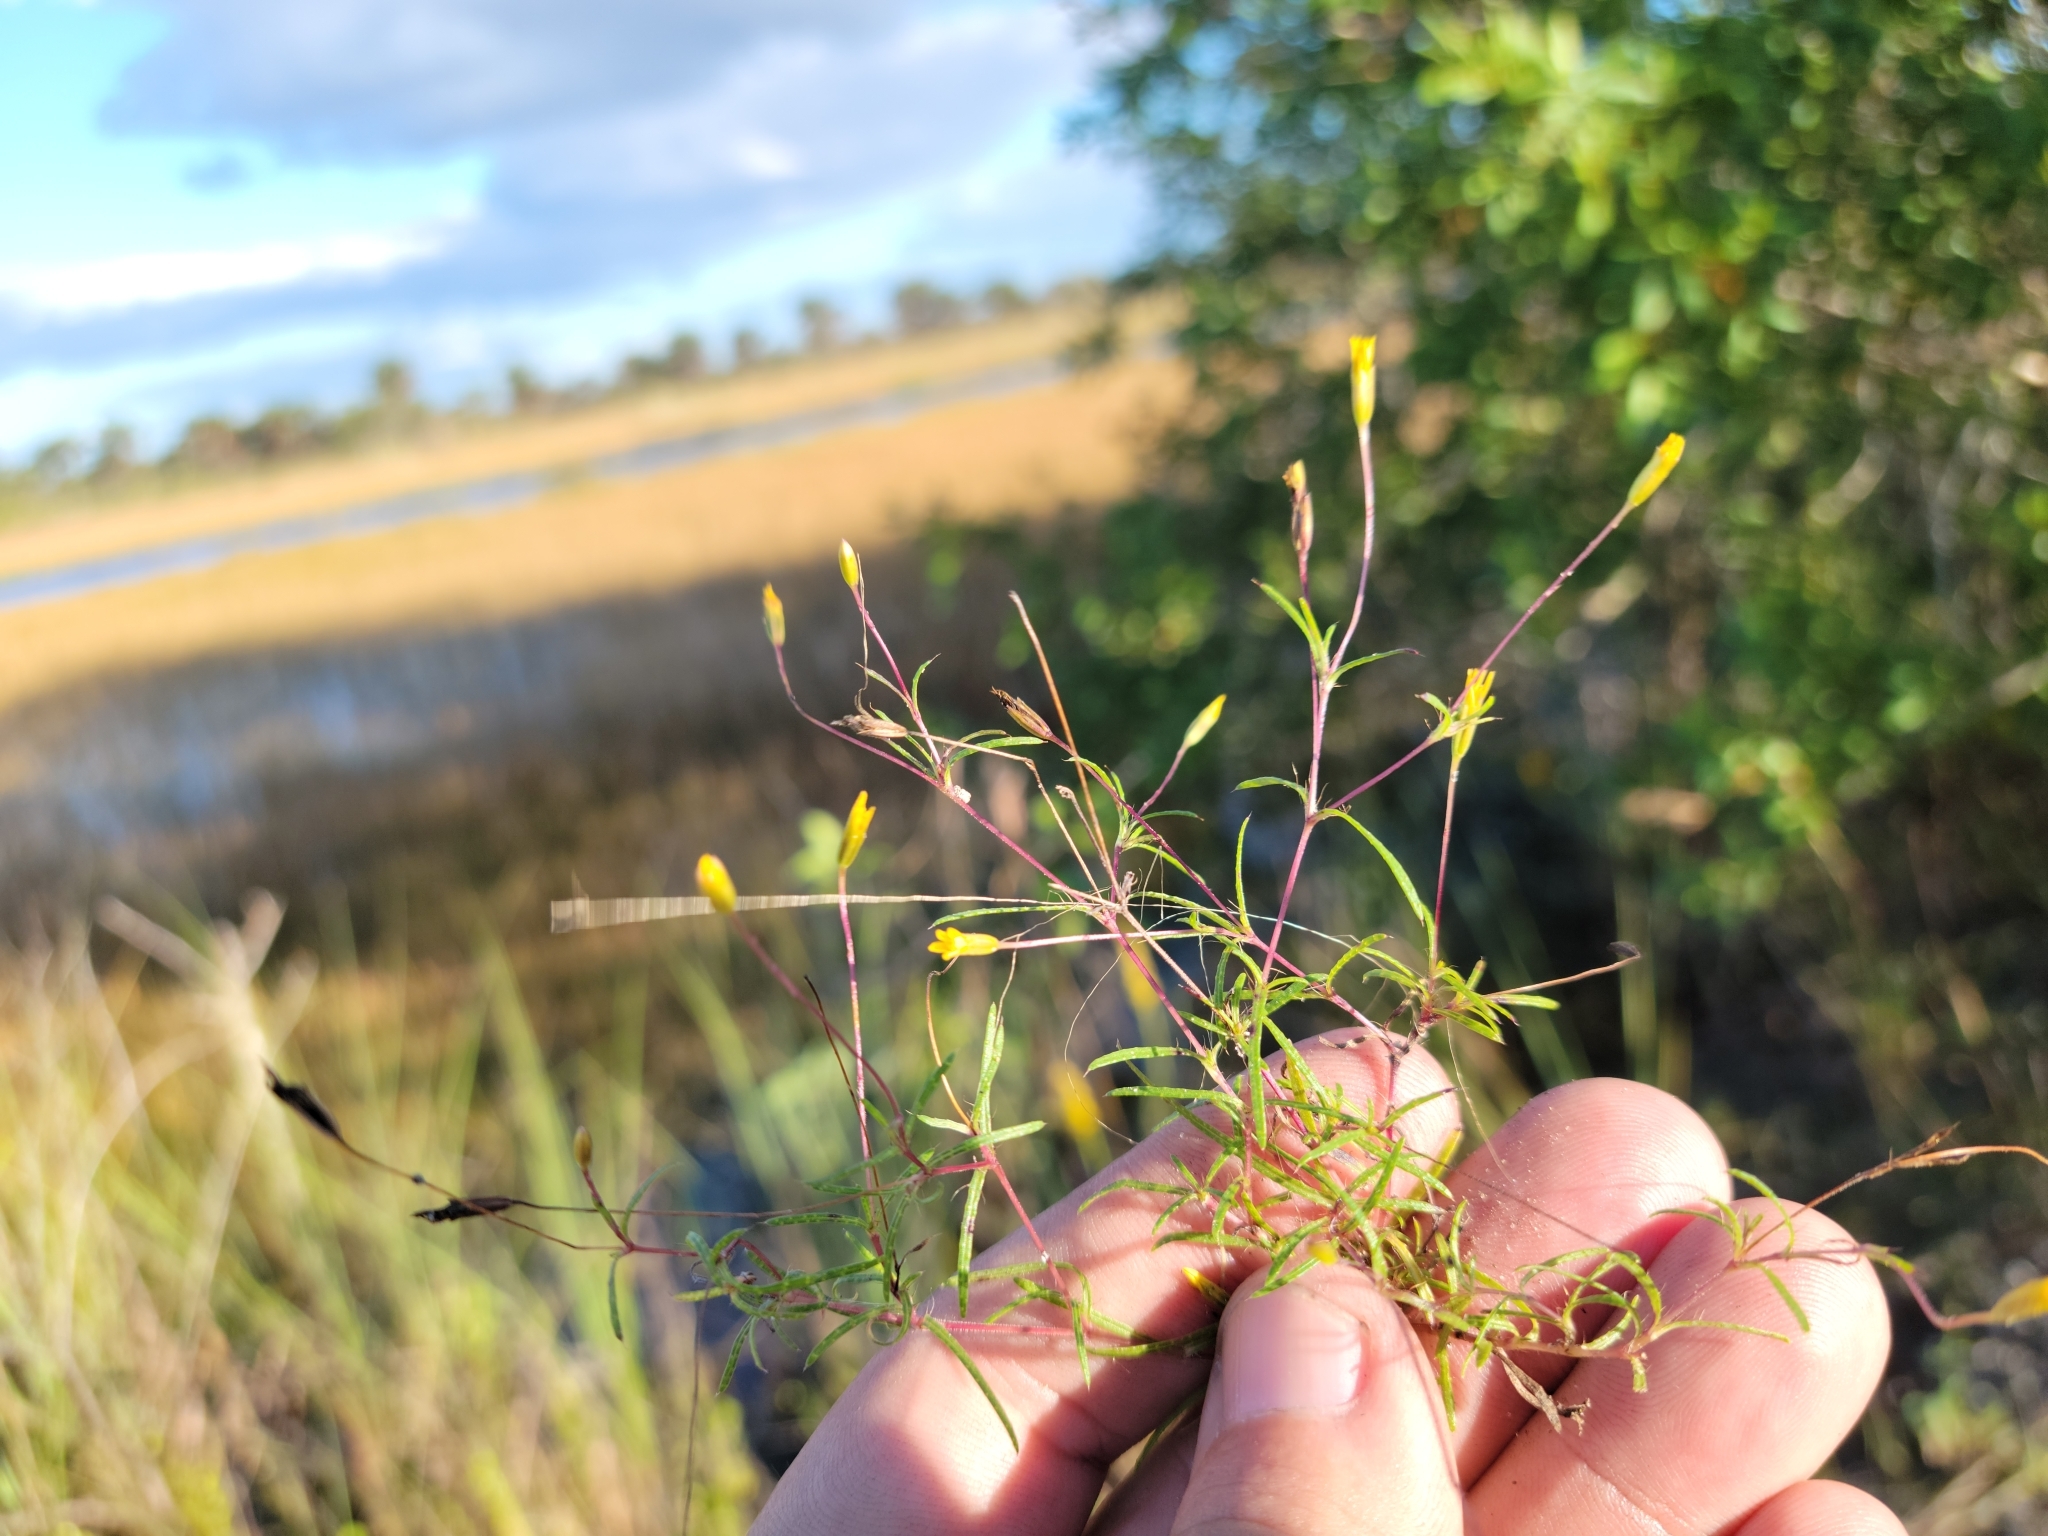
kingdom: Plantae
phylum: Tracheophyta
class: Magnoliopsida
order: Asterales
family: Asteraceae
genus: Pectis
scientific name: Pectis glaucescens
